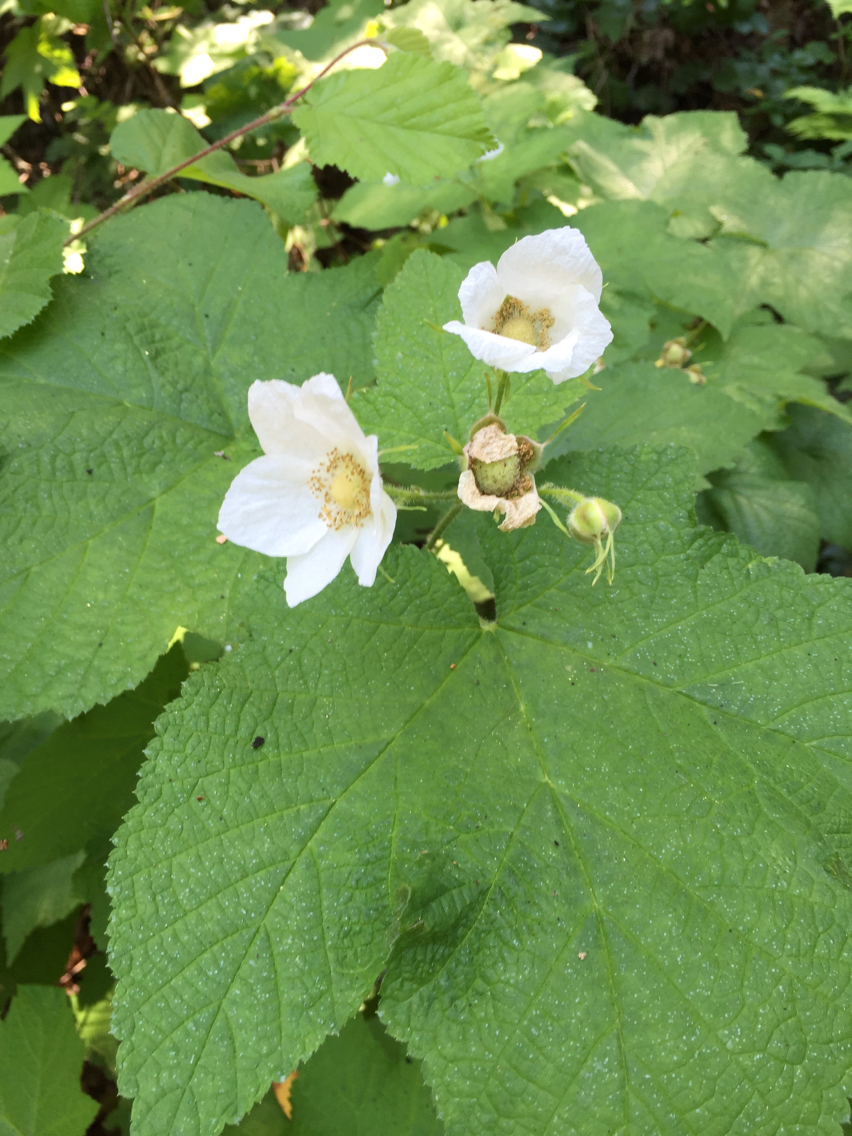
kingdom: Plantae
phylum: Tracheophyta
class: Magnoliopsida
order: Rosales
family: Rosaceae
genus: Rubus
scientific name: Rubus parviflorus
